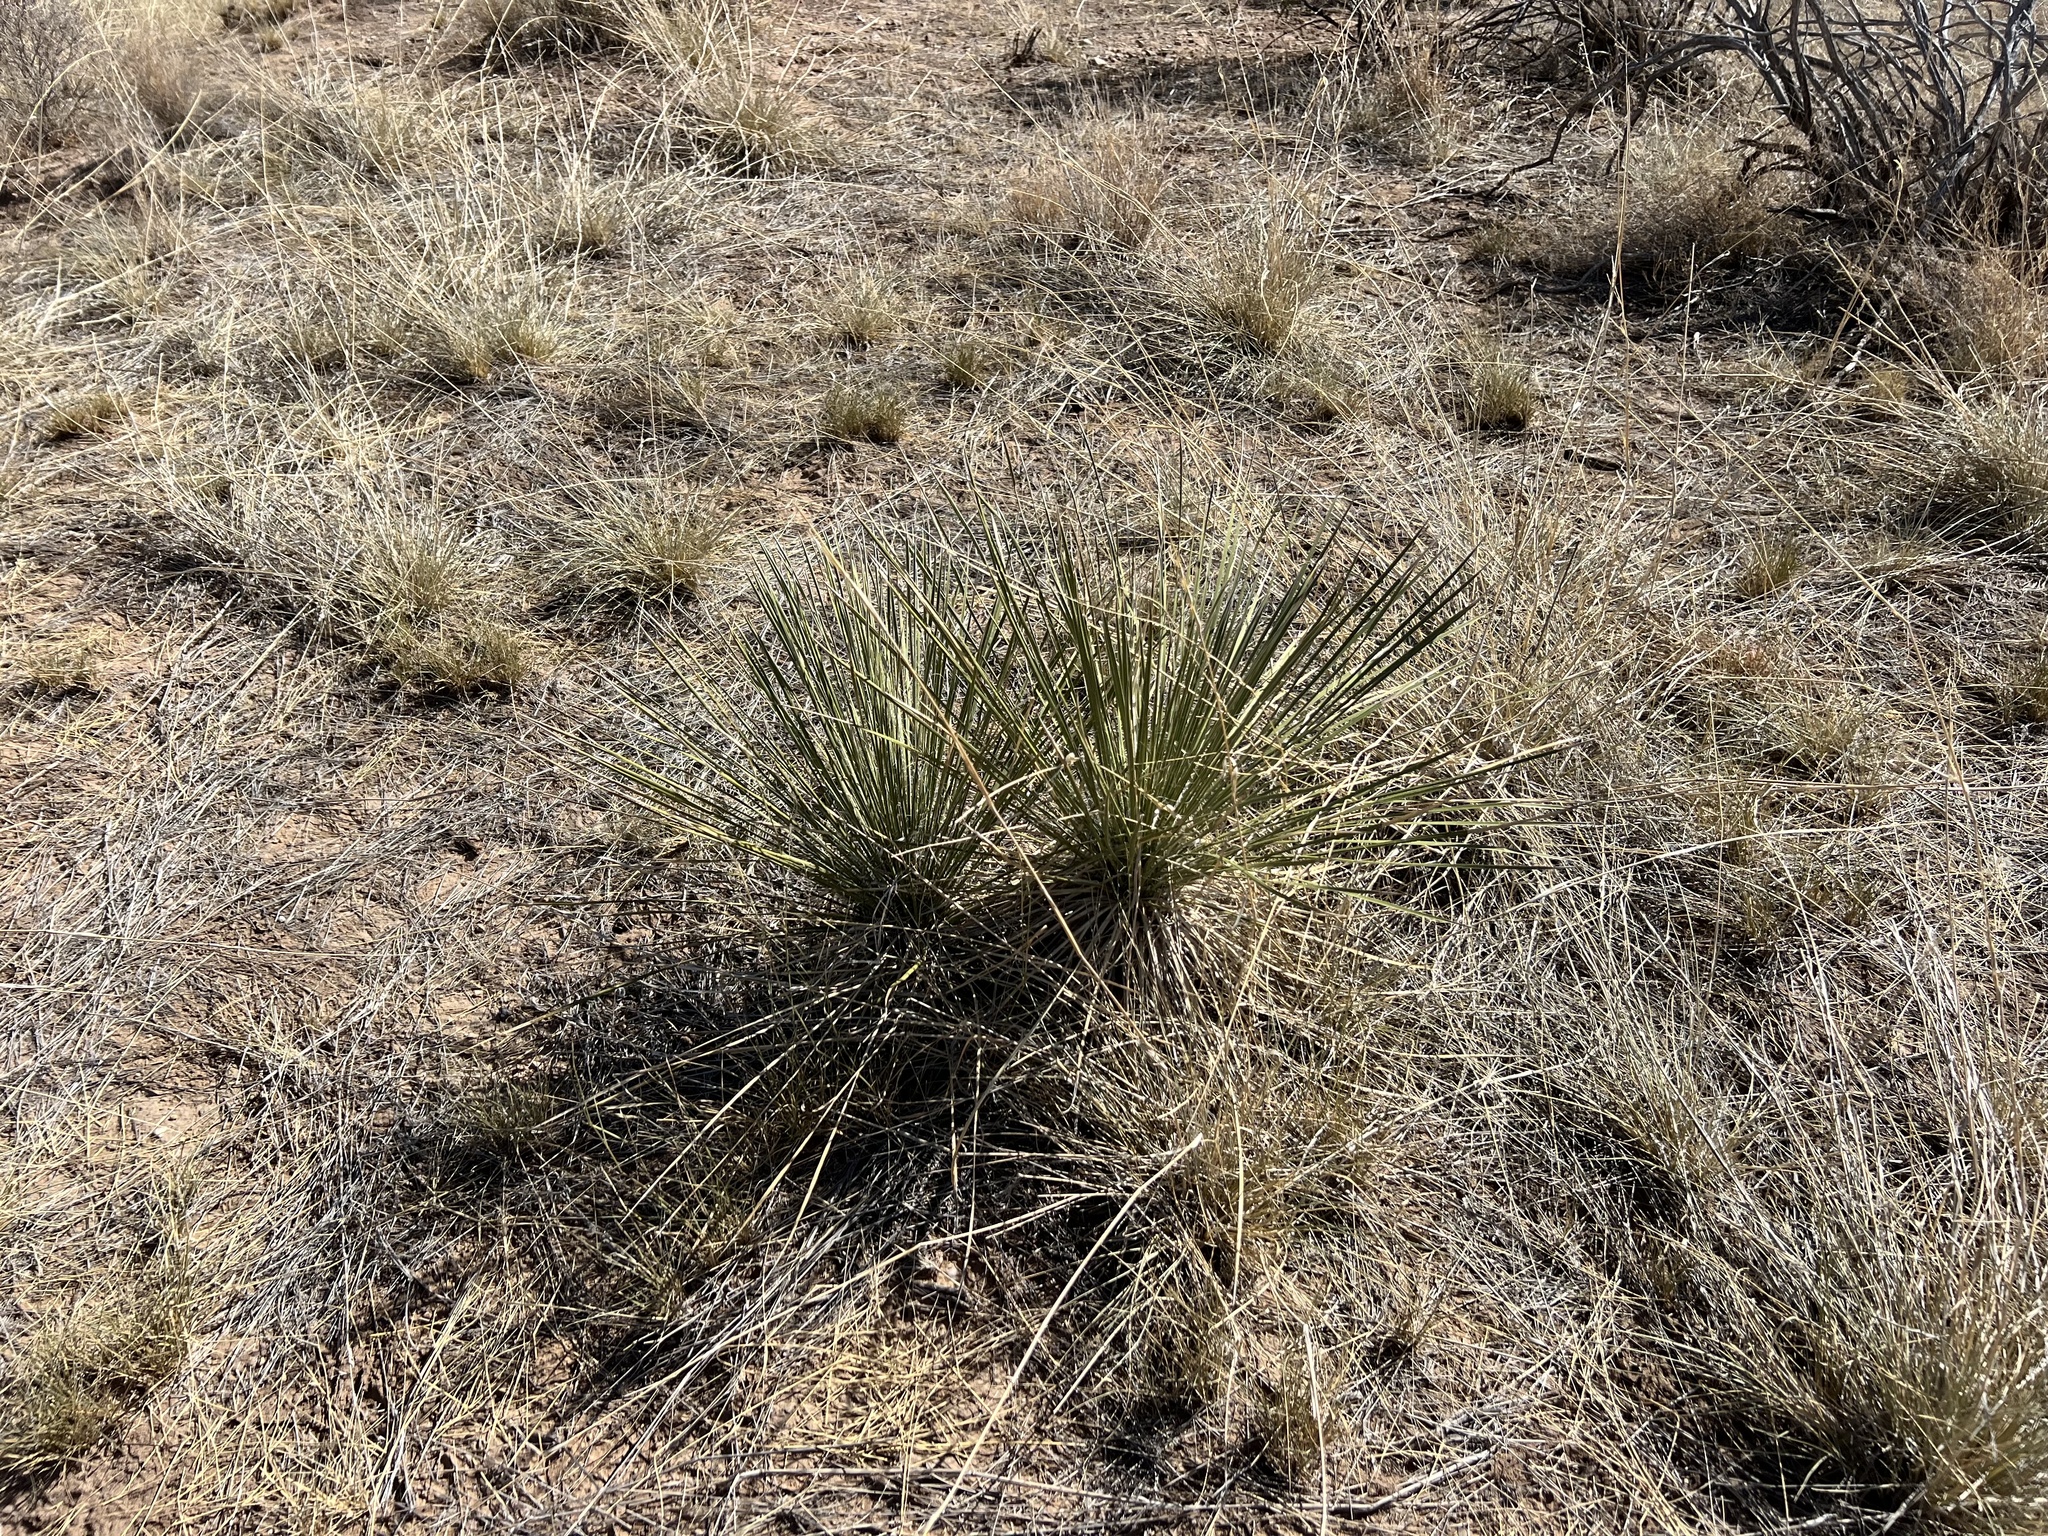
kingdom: Plantae
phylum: Tracheophyta
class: Liliopsida
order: Asparagales
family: Asparagaceae
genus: Yucca
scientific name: Yucca elata
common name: Palmella
